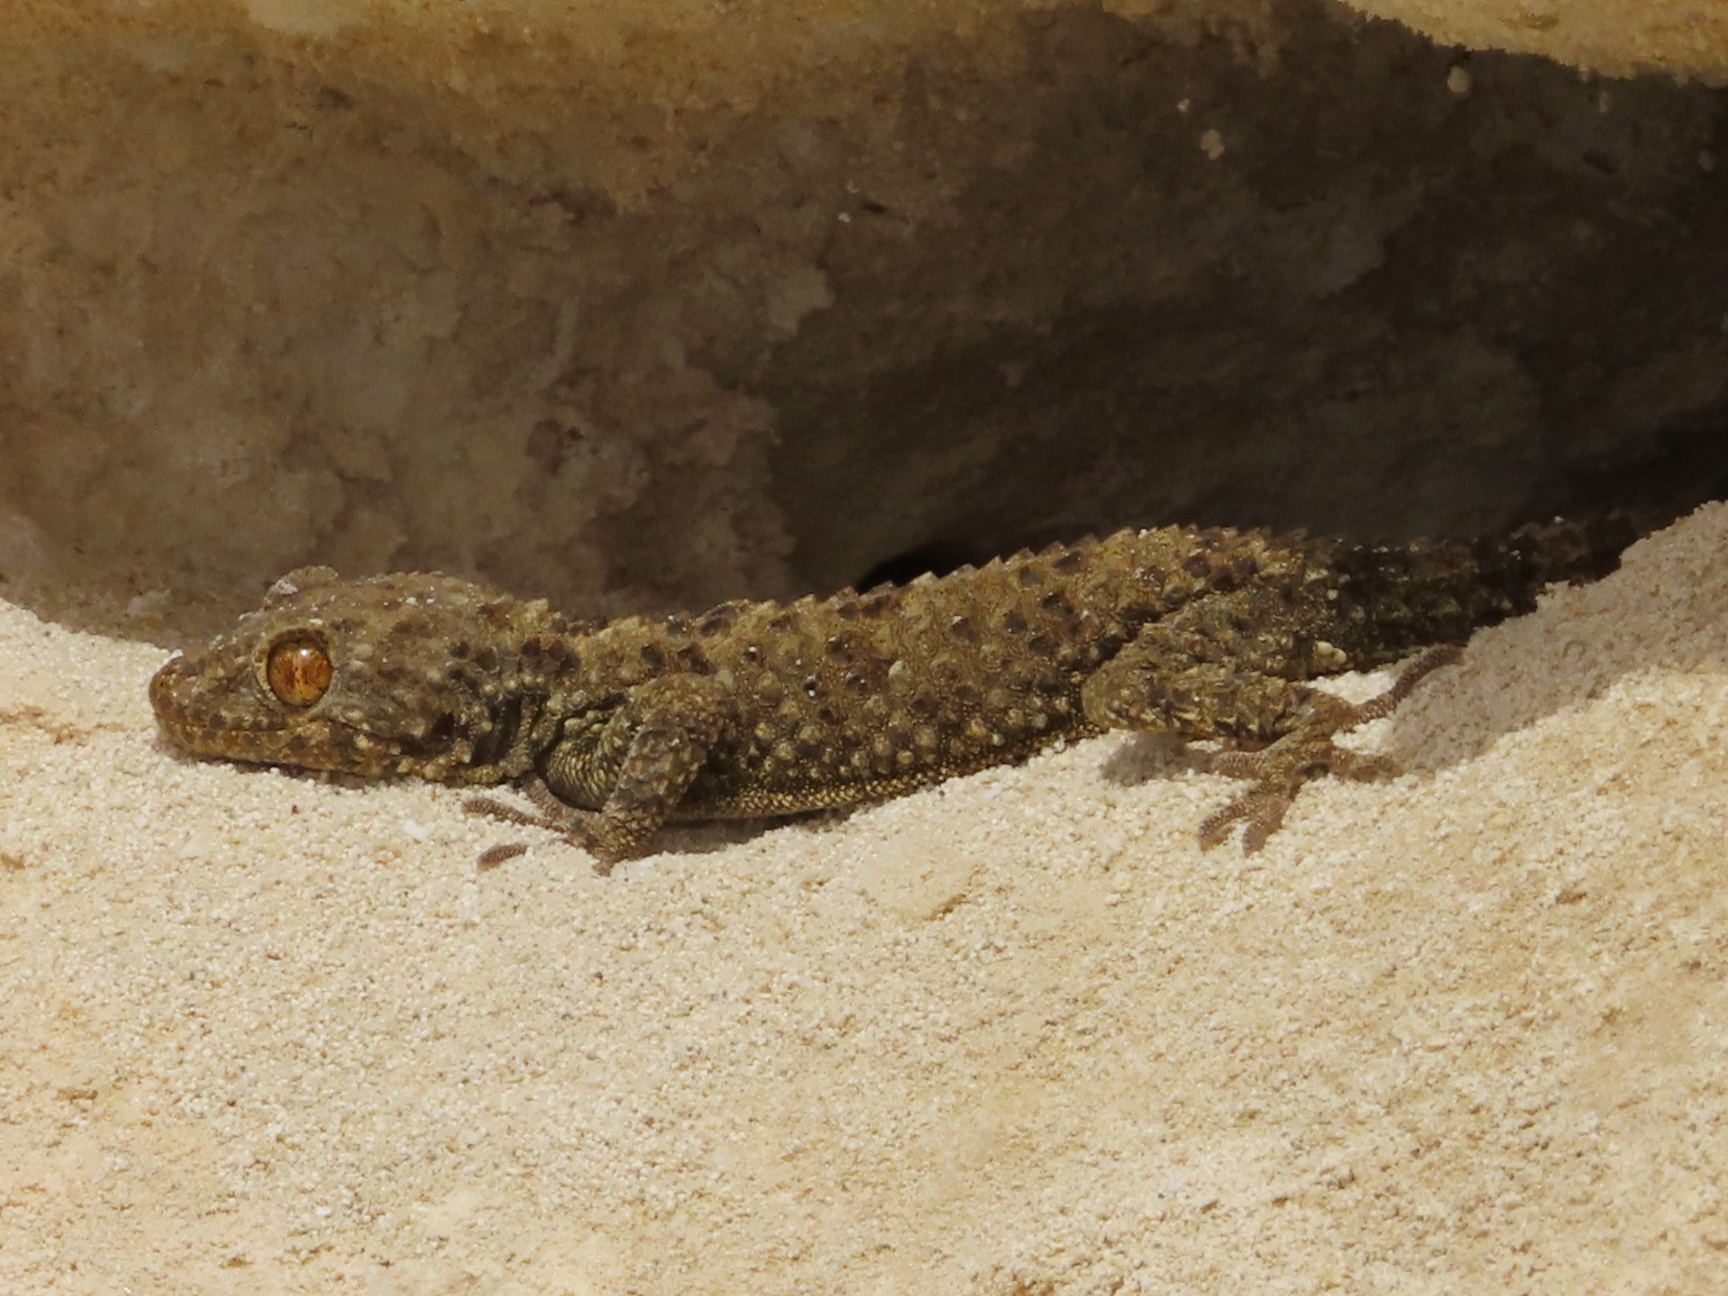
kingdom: Animalia
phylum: Chordata
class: Squamata
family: Gekkonidae
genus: Tenuidactylus
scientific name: Tenuidactylus caspius
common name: Caspian bent-toed gecko
